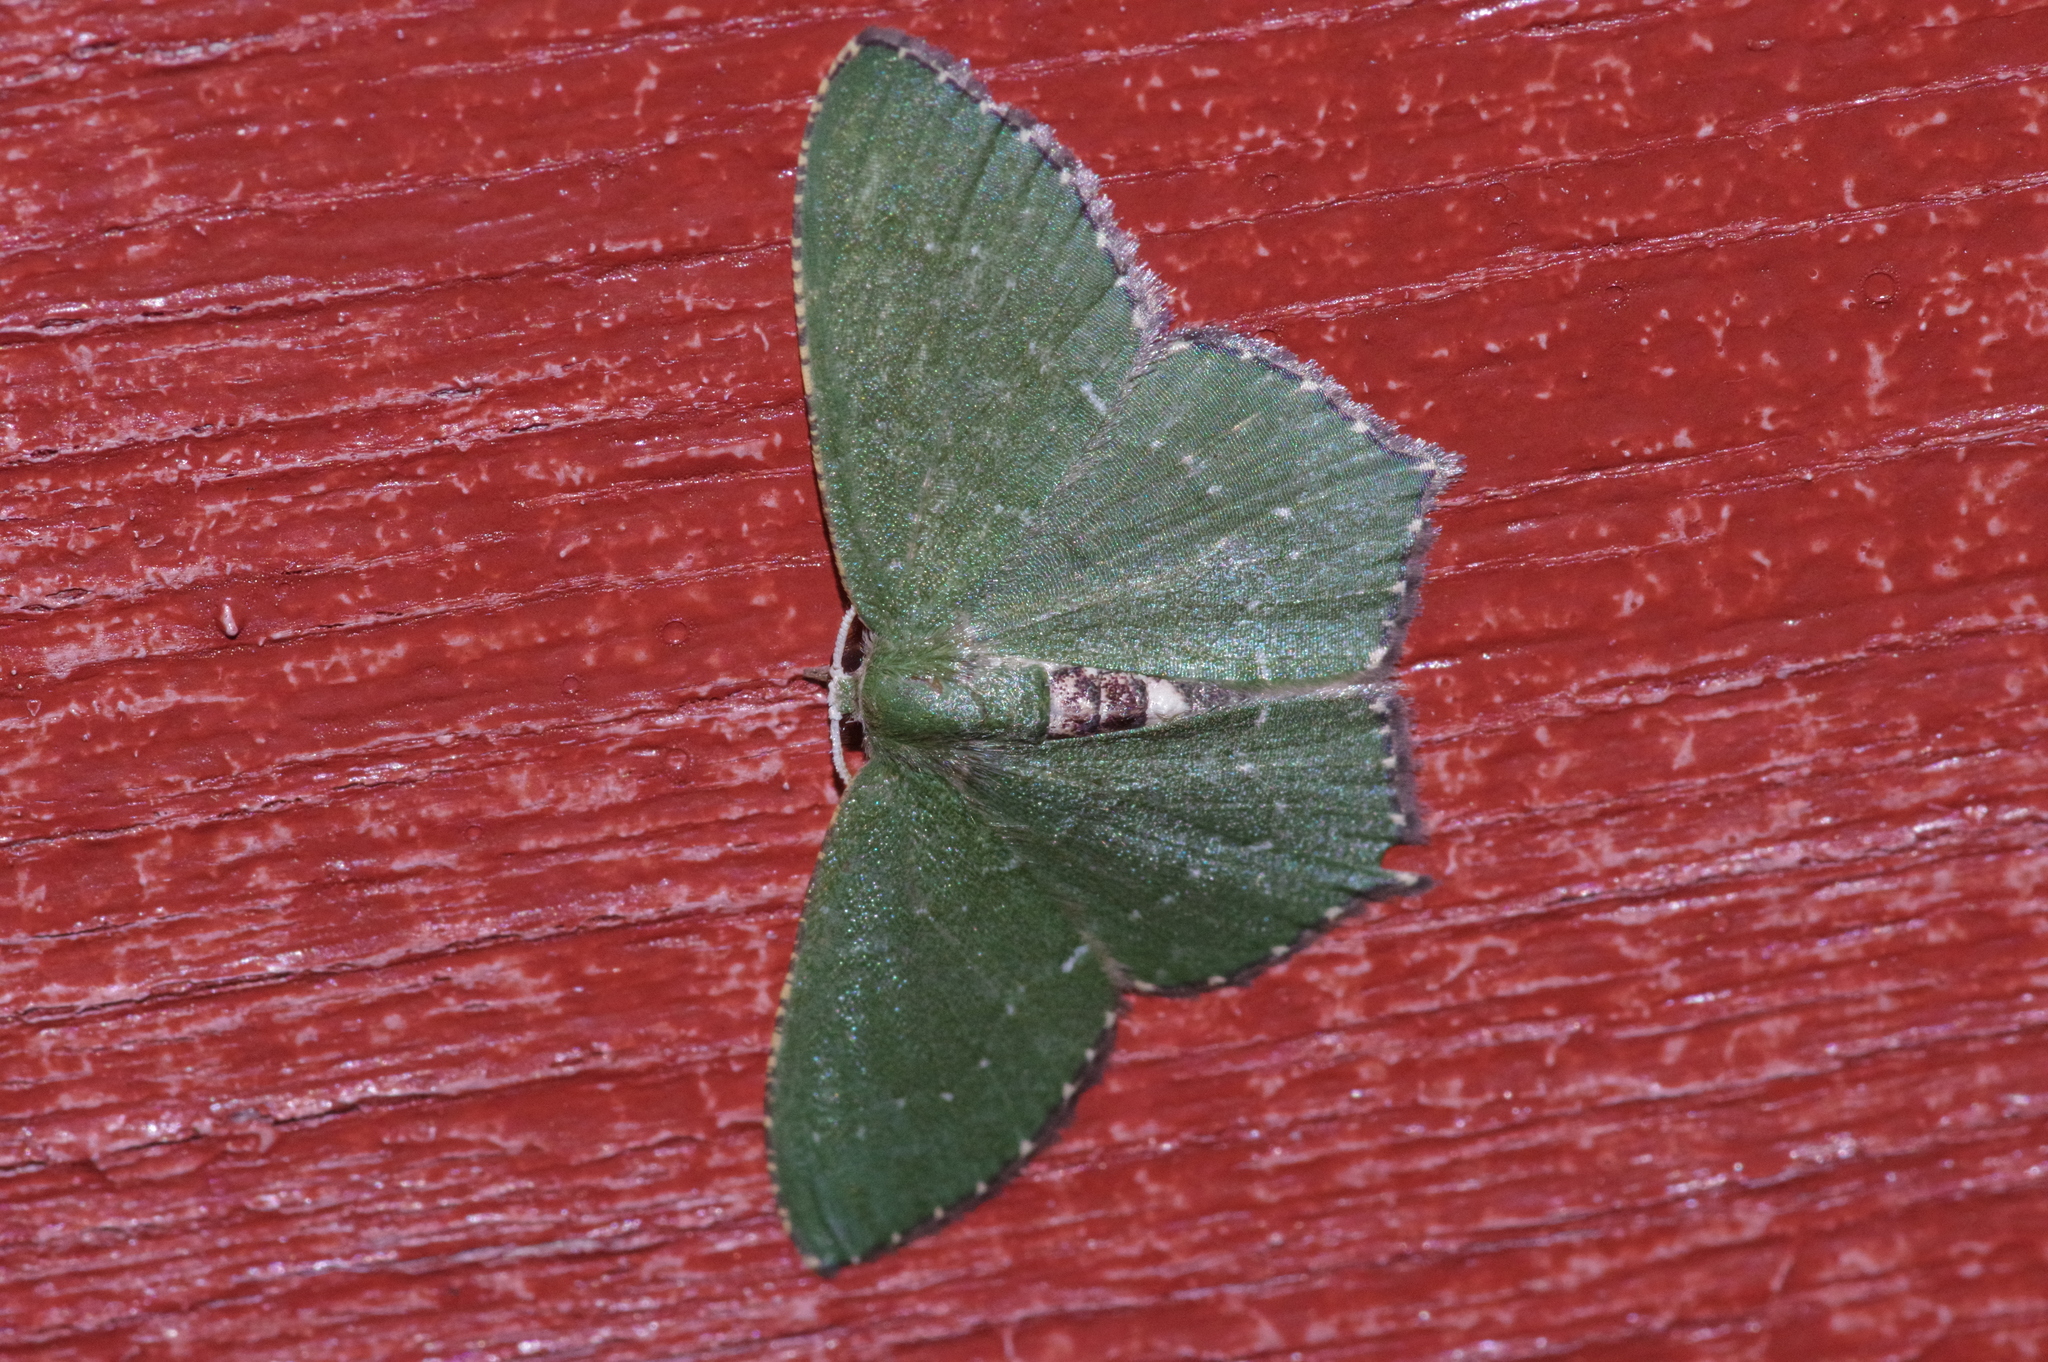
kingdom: Animalia
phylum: Arthropoda
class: Insecta
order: Lepidoptera
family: Geometridae
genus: Hemithea
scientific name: Hemithea tritonaria
